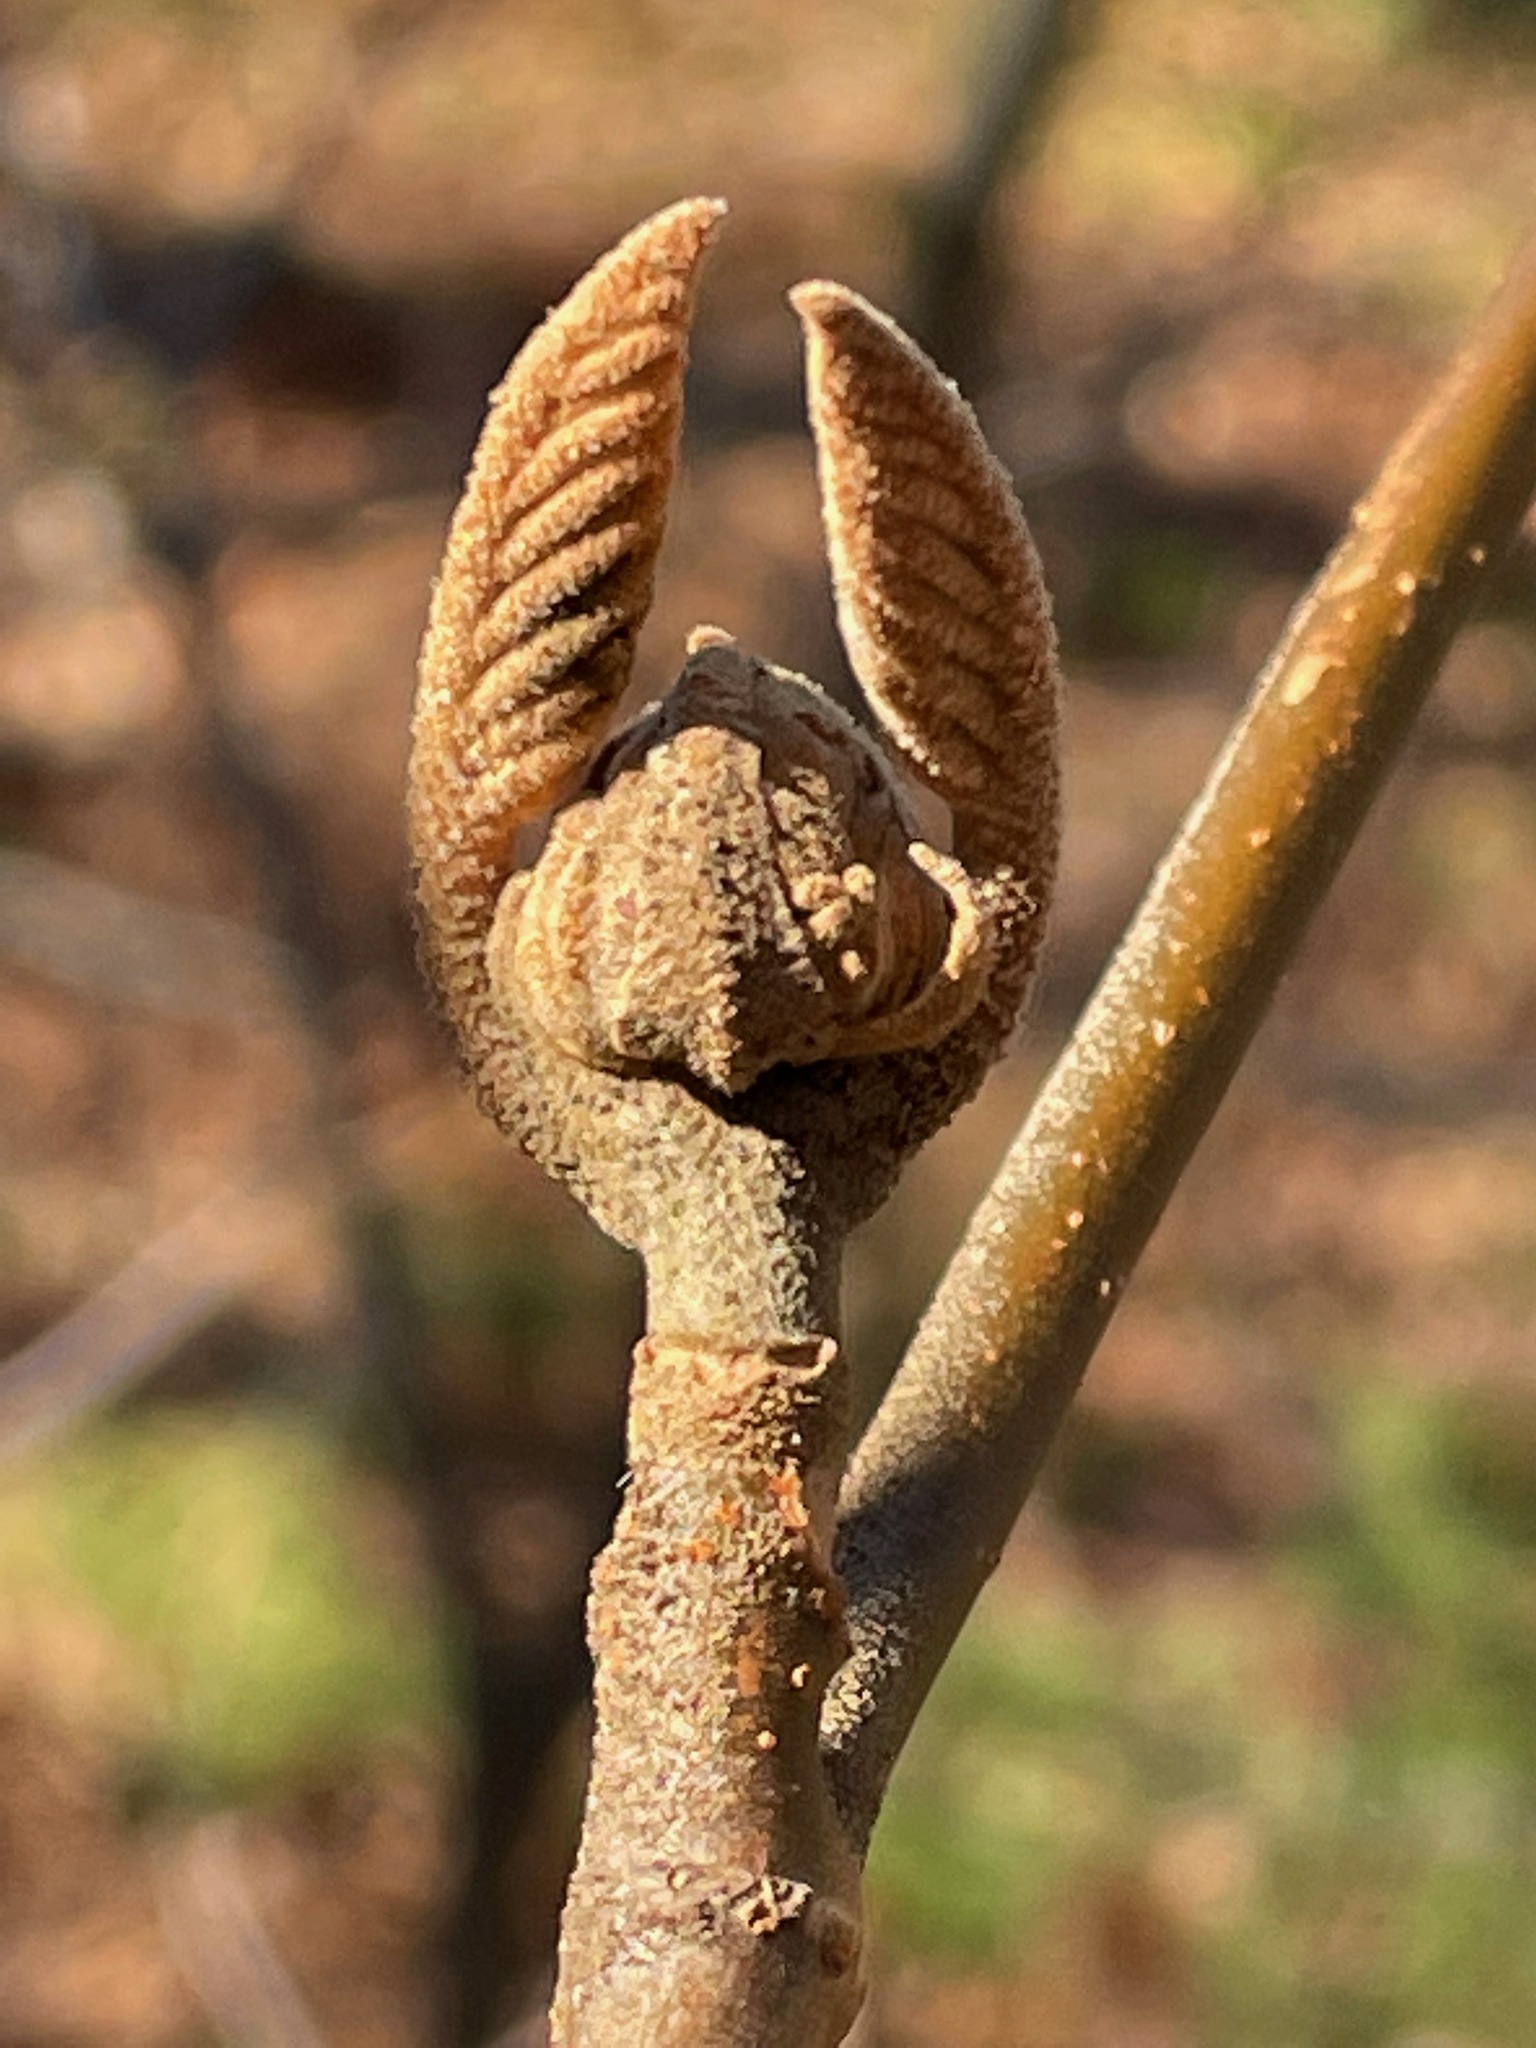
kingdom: Plantae
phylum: Tracheophyta
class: Magnoliopsida
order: Dipsacales
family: Viburnaceae
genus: Viburnum
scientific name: Viburnum lantanoides
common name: Hobblebush
